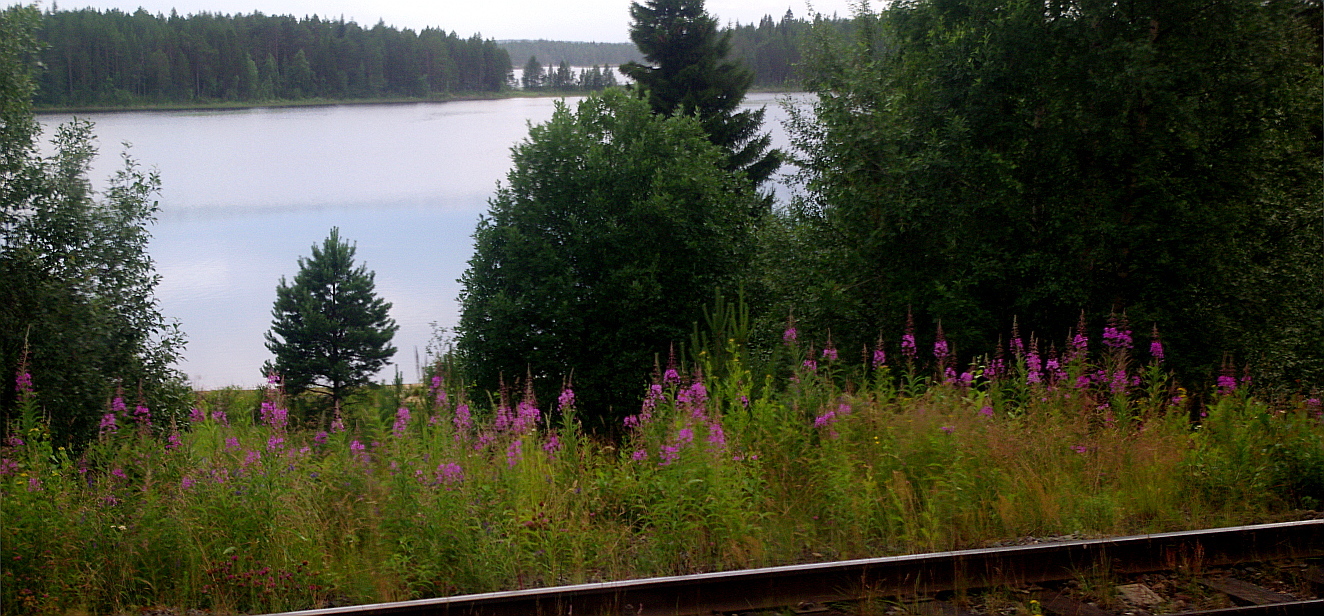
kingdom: Plantae
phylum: Tracheophyta
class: Magnoliopsida
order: Myrtales
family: Onagraceae
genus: Chamaenerion
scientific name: Chamaenerion angustifolium
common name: Fireweed
